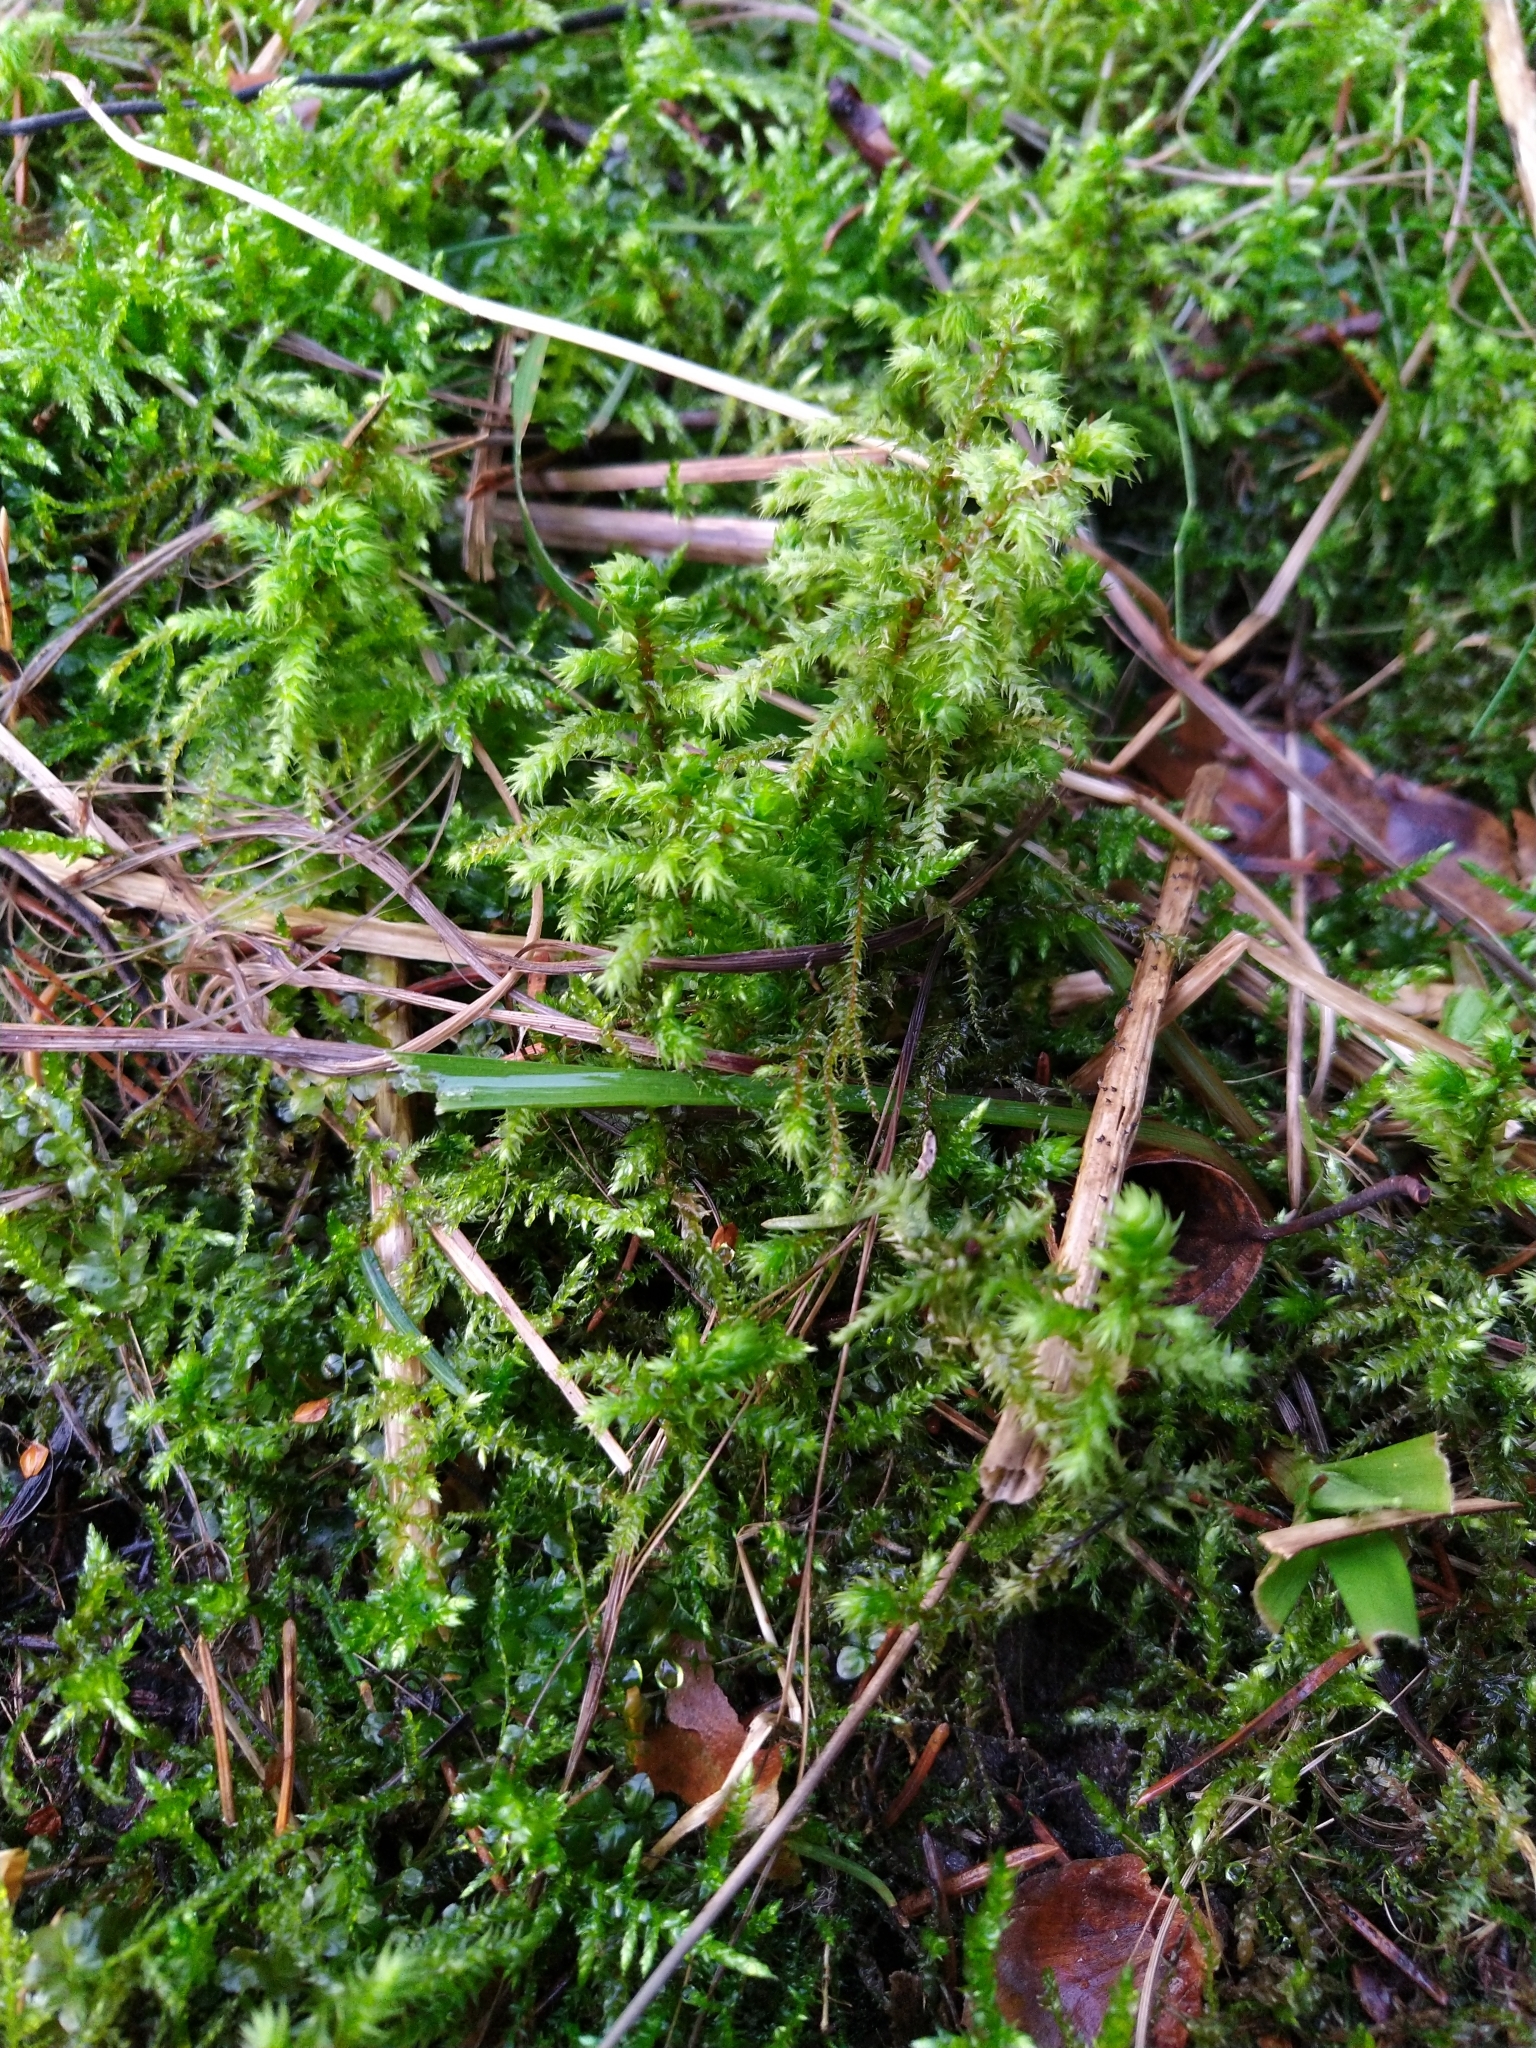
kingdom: Plantae
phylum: Bryophyta
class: Bryopsida
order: Hypnales
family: Hylocomiaceae
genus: Hylocomiadelphus
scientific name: Hylocomiadelphus triquetrus
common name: Rough goose neck moss
